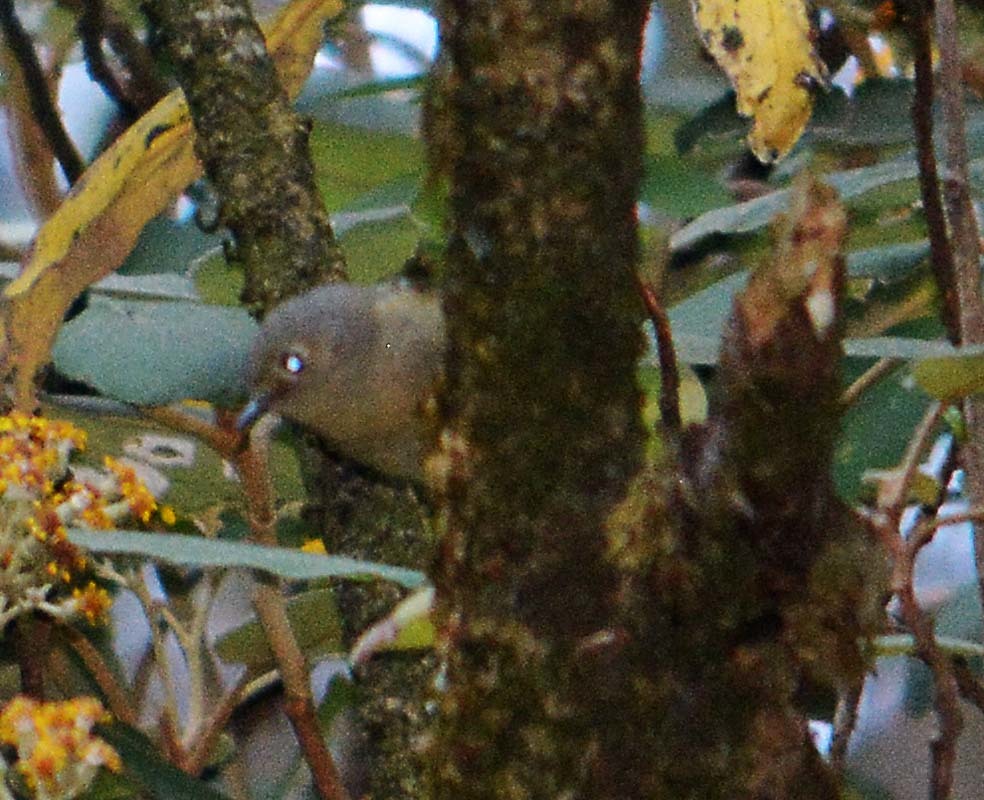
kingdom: Animalia
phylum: Chordata
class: Aves
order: Passeriformes
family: Vireonidae
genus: Vireo
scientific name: Vireo huttoni
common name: Hutton's vireo
